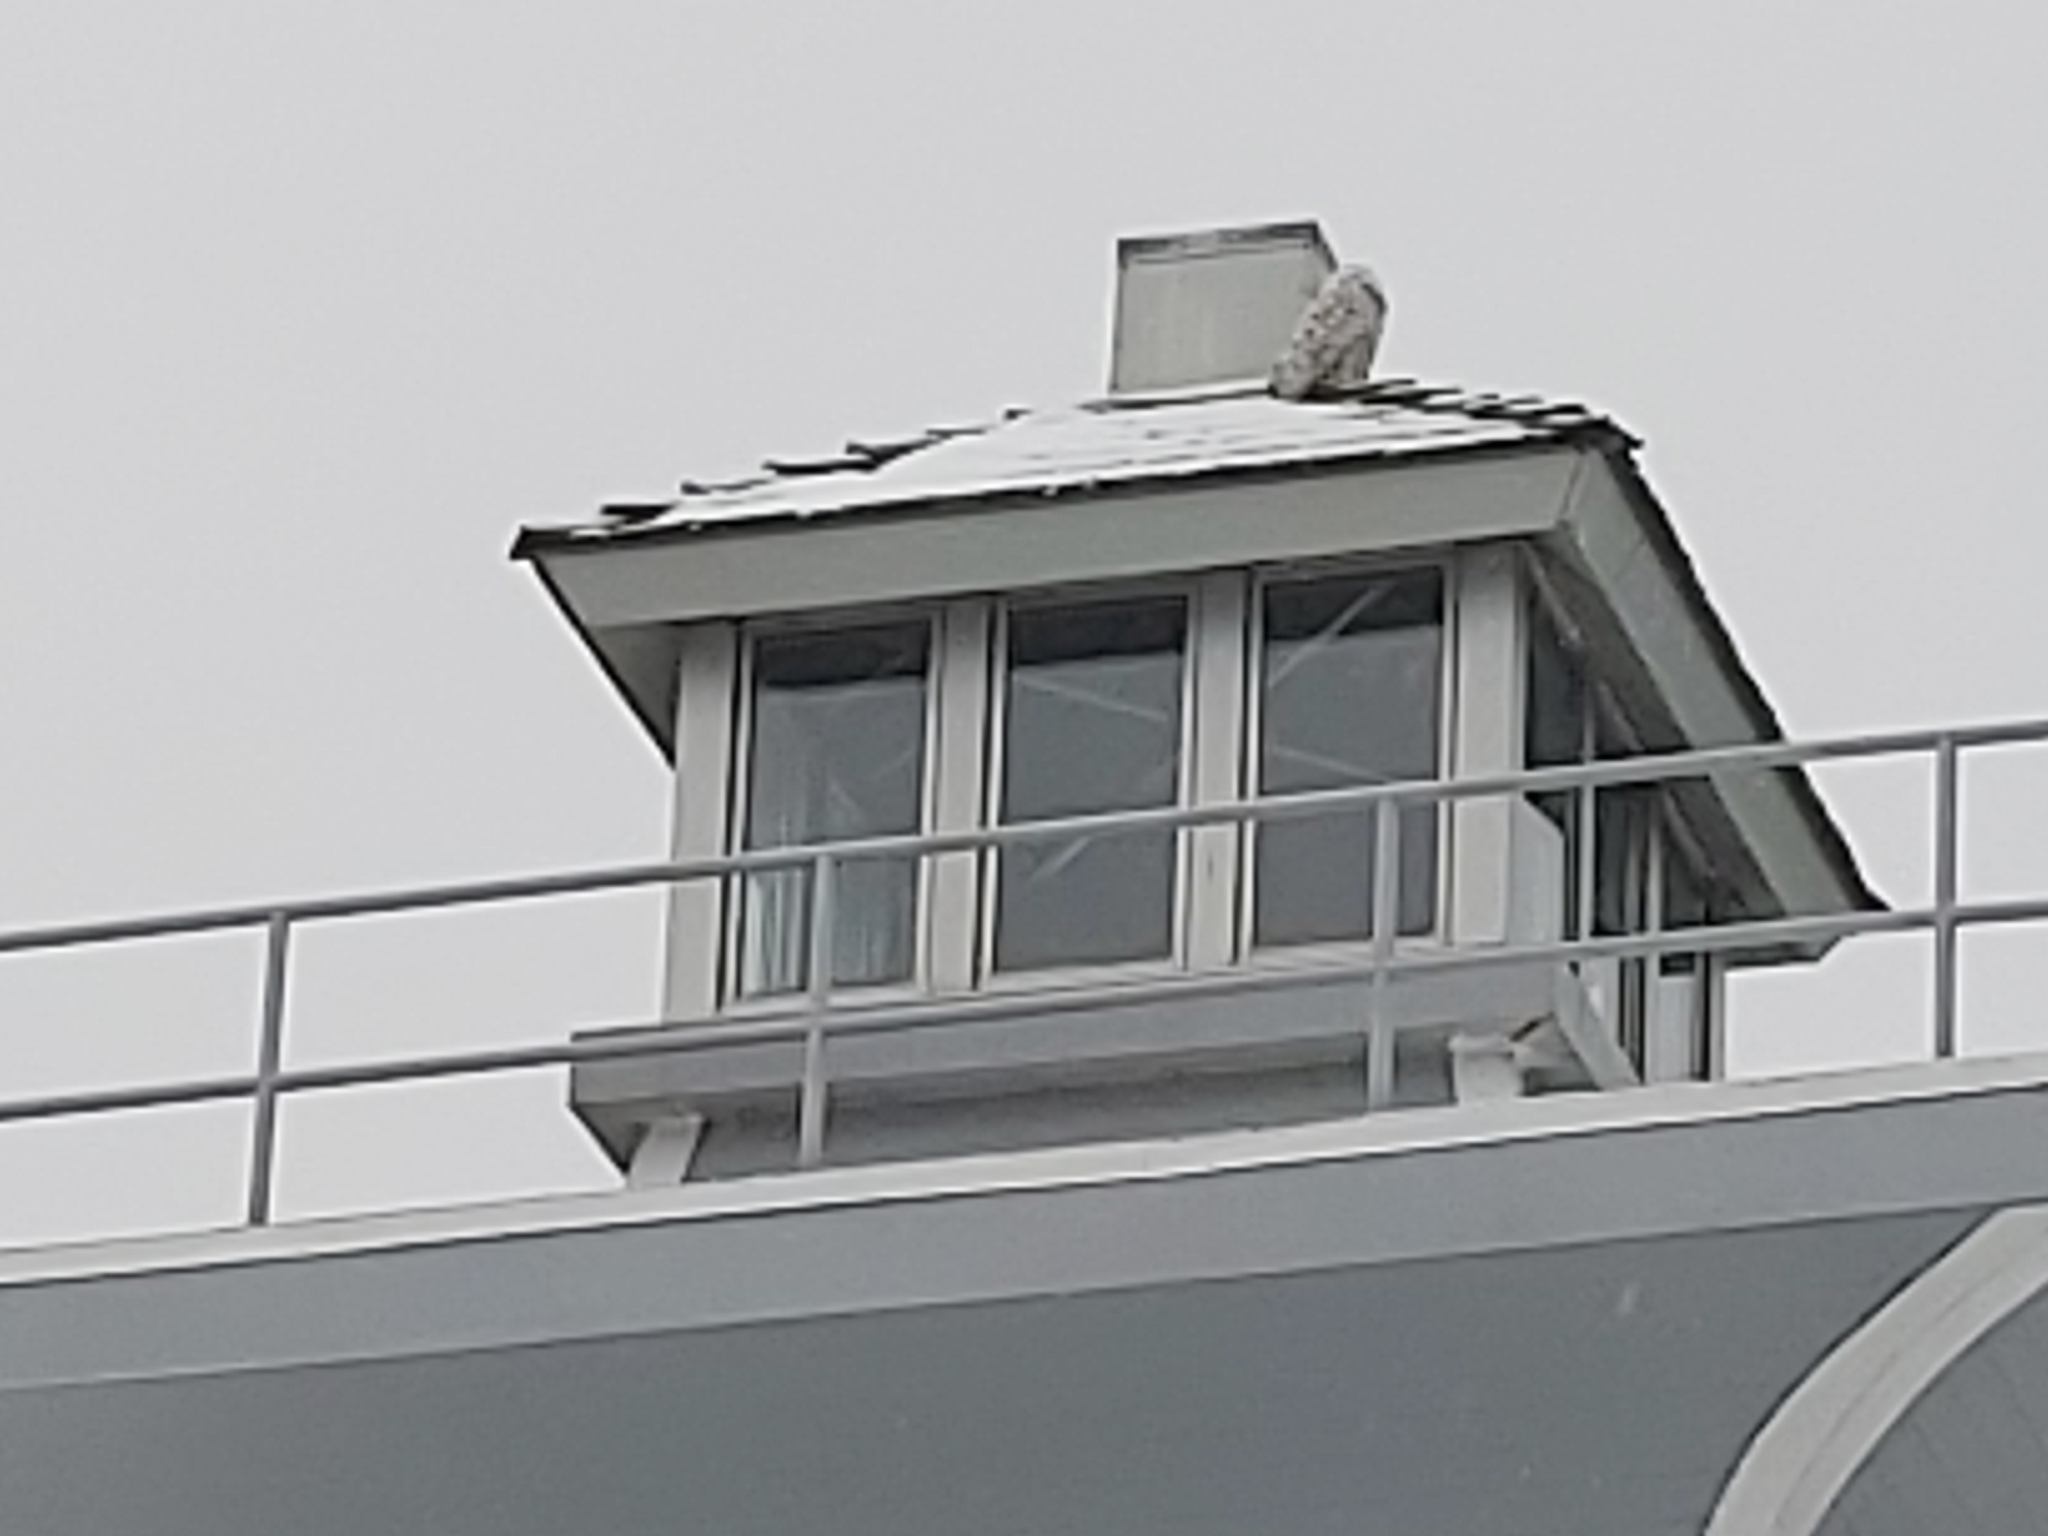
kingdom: Animalia
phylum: Chordata
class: Aves
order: Strigiformes
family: Strigidae
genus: Bubo
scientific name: Bubo scandiacus
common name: Snowy owl
